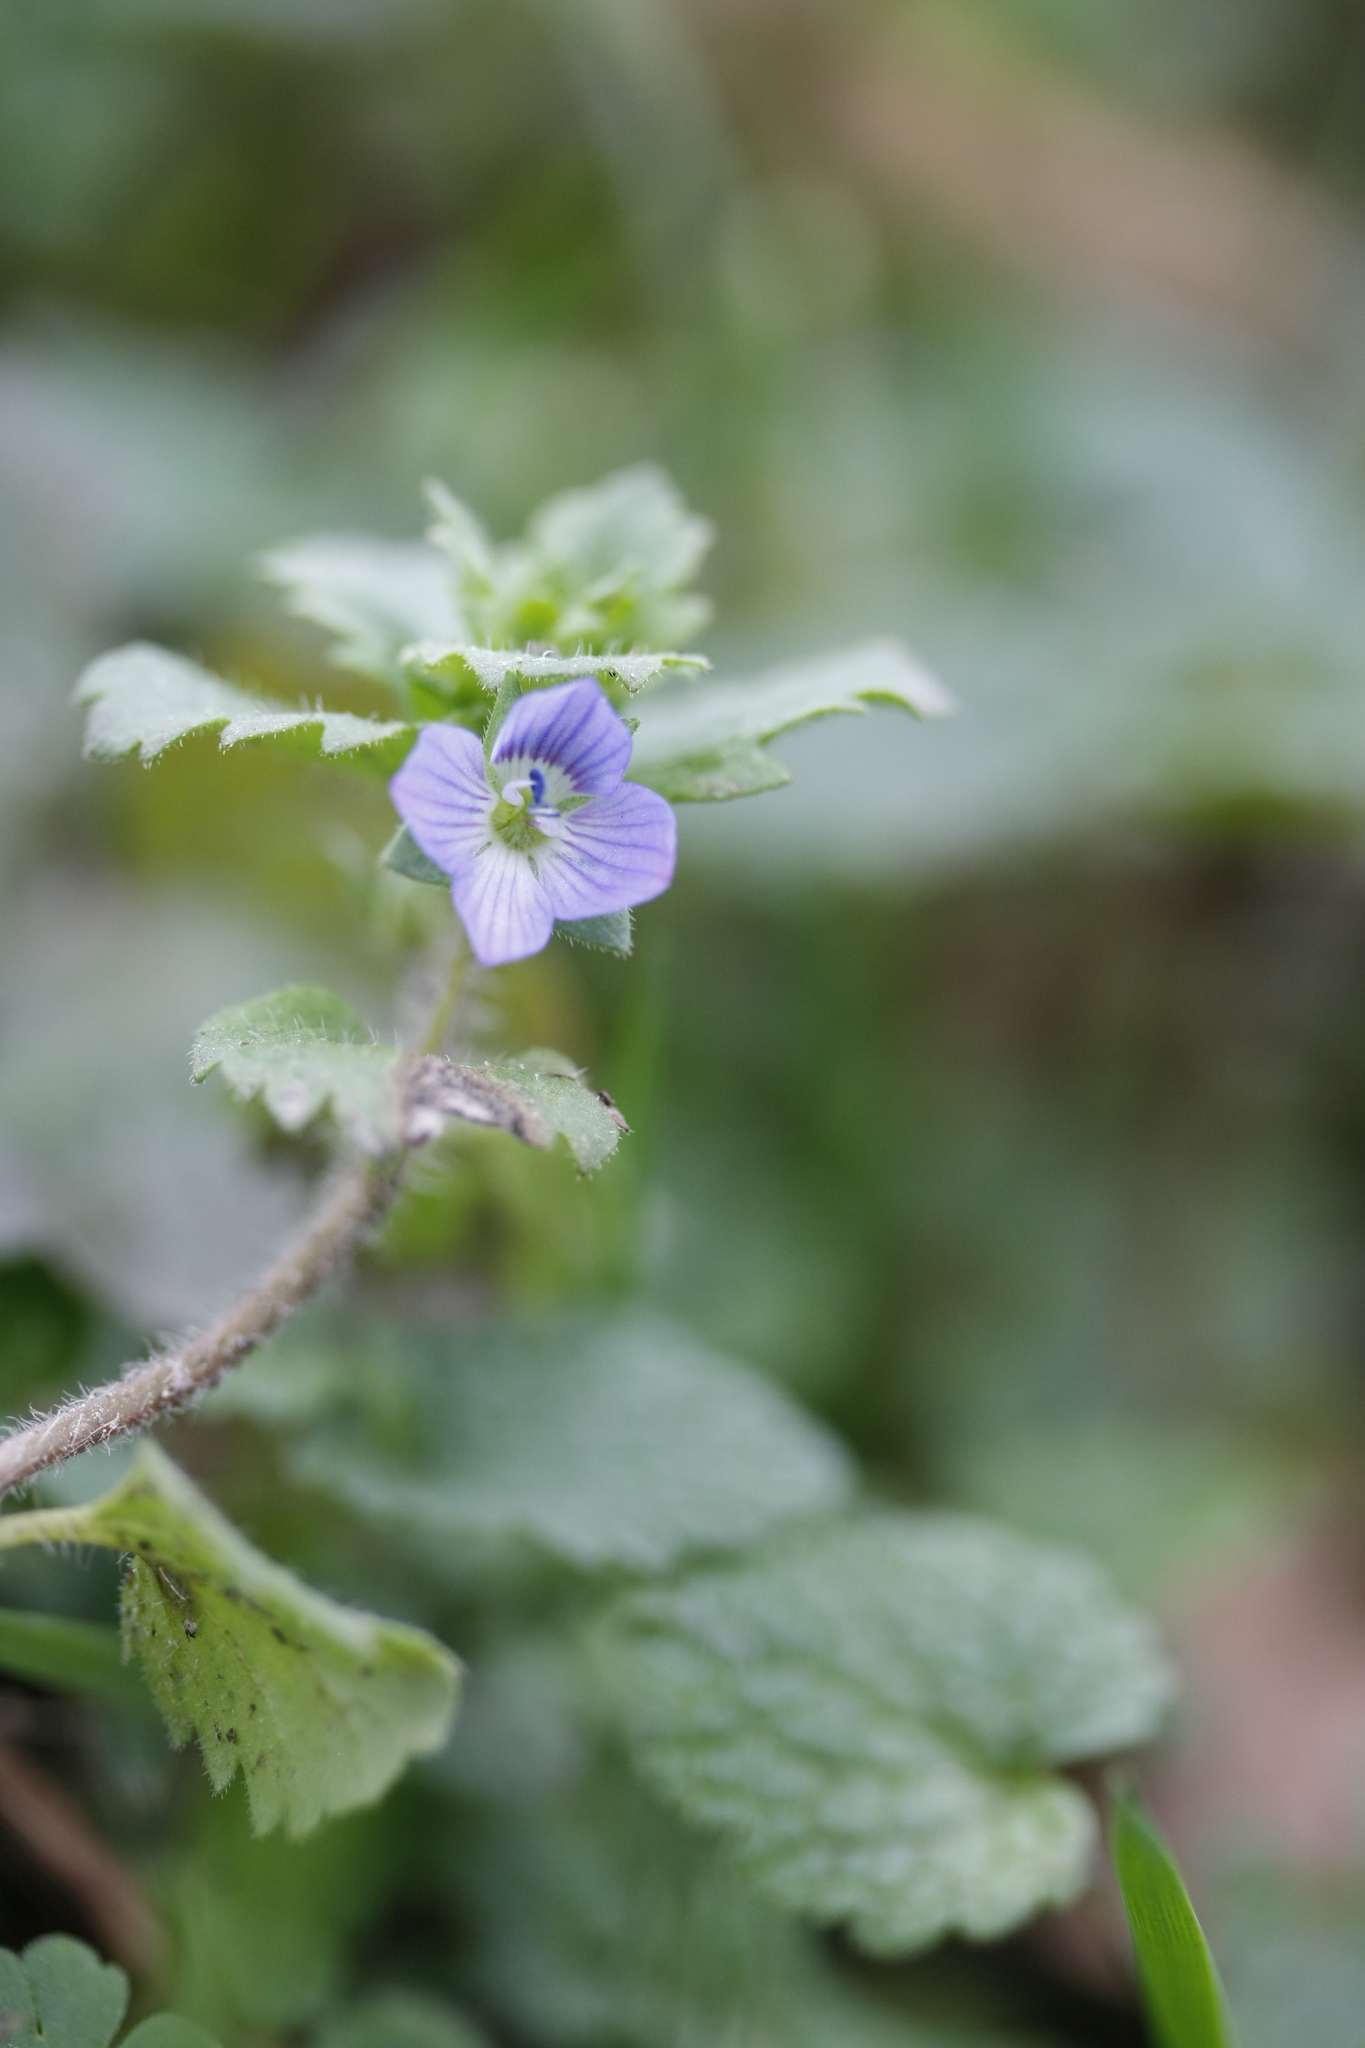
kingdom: Plantae
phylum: Tracheophyta
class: Magnoliopsida
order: Lamiales
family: Plantaginaceae
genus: Veronica
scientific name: Veronica persica
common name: Common field-speedwell
